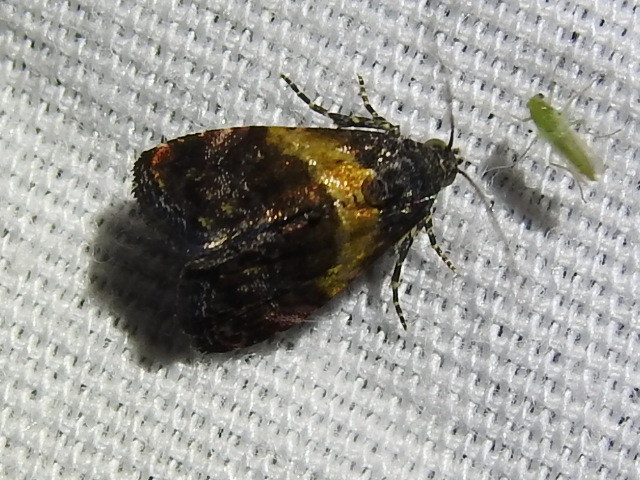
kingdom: Animalia
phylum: Arthropoda
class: Insecta
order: Lepidoptera
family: Noctuidae
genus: Tripudia
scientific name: Tripudia flavofasciata
